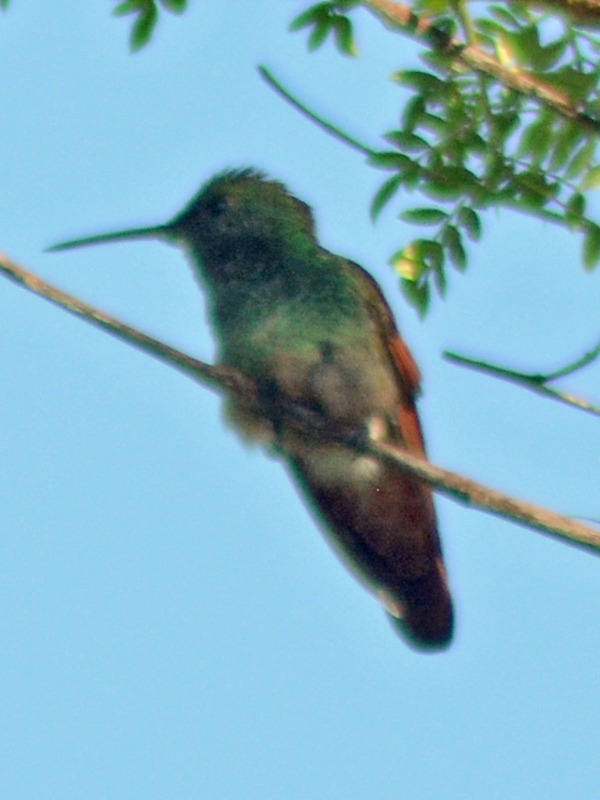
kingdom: Animalia
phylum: Chordata
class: Aves
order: Apodiformes
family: Trochilidae
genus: Saucerottia
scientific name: Saucerottia beryllina
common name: Berylline hummingbird
